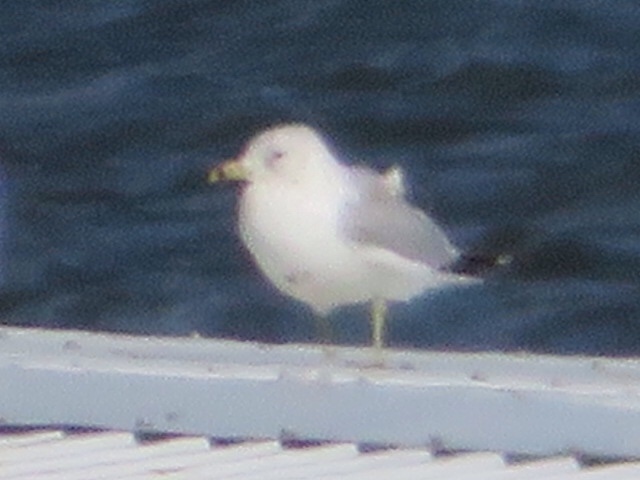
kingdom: Animalia
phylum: Chordata
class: Aves
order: Charadriiformes
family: Laridae
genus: Larus
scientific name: Larus delawarensis
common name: Ring-billed gull
